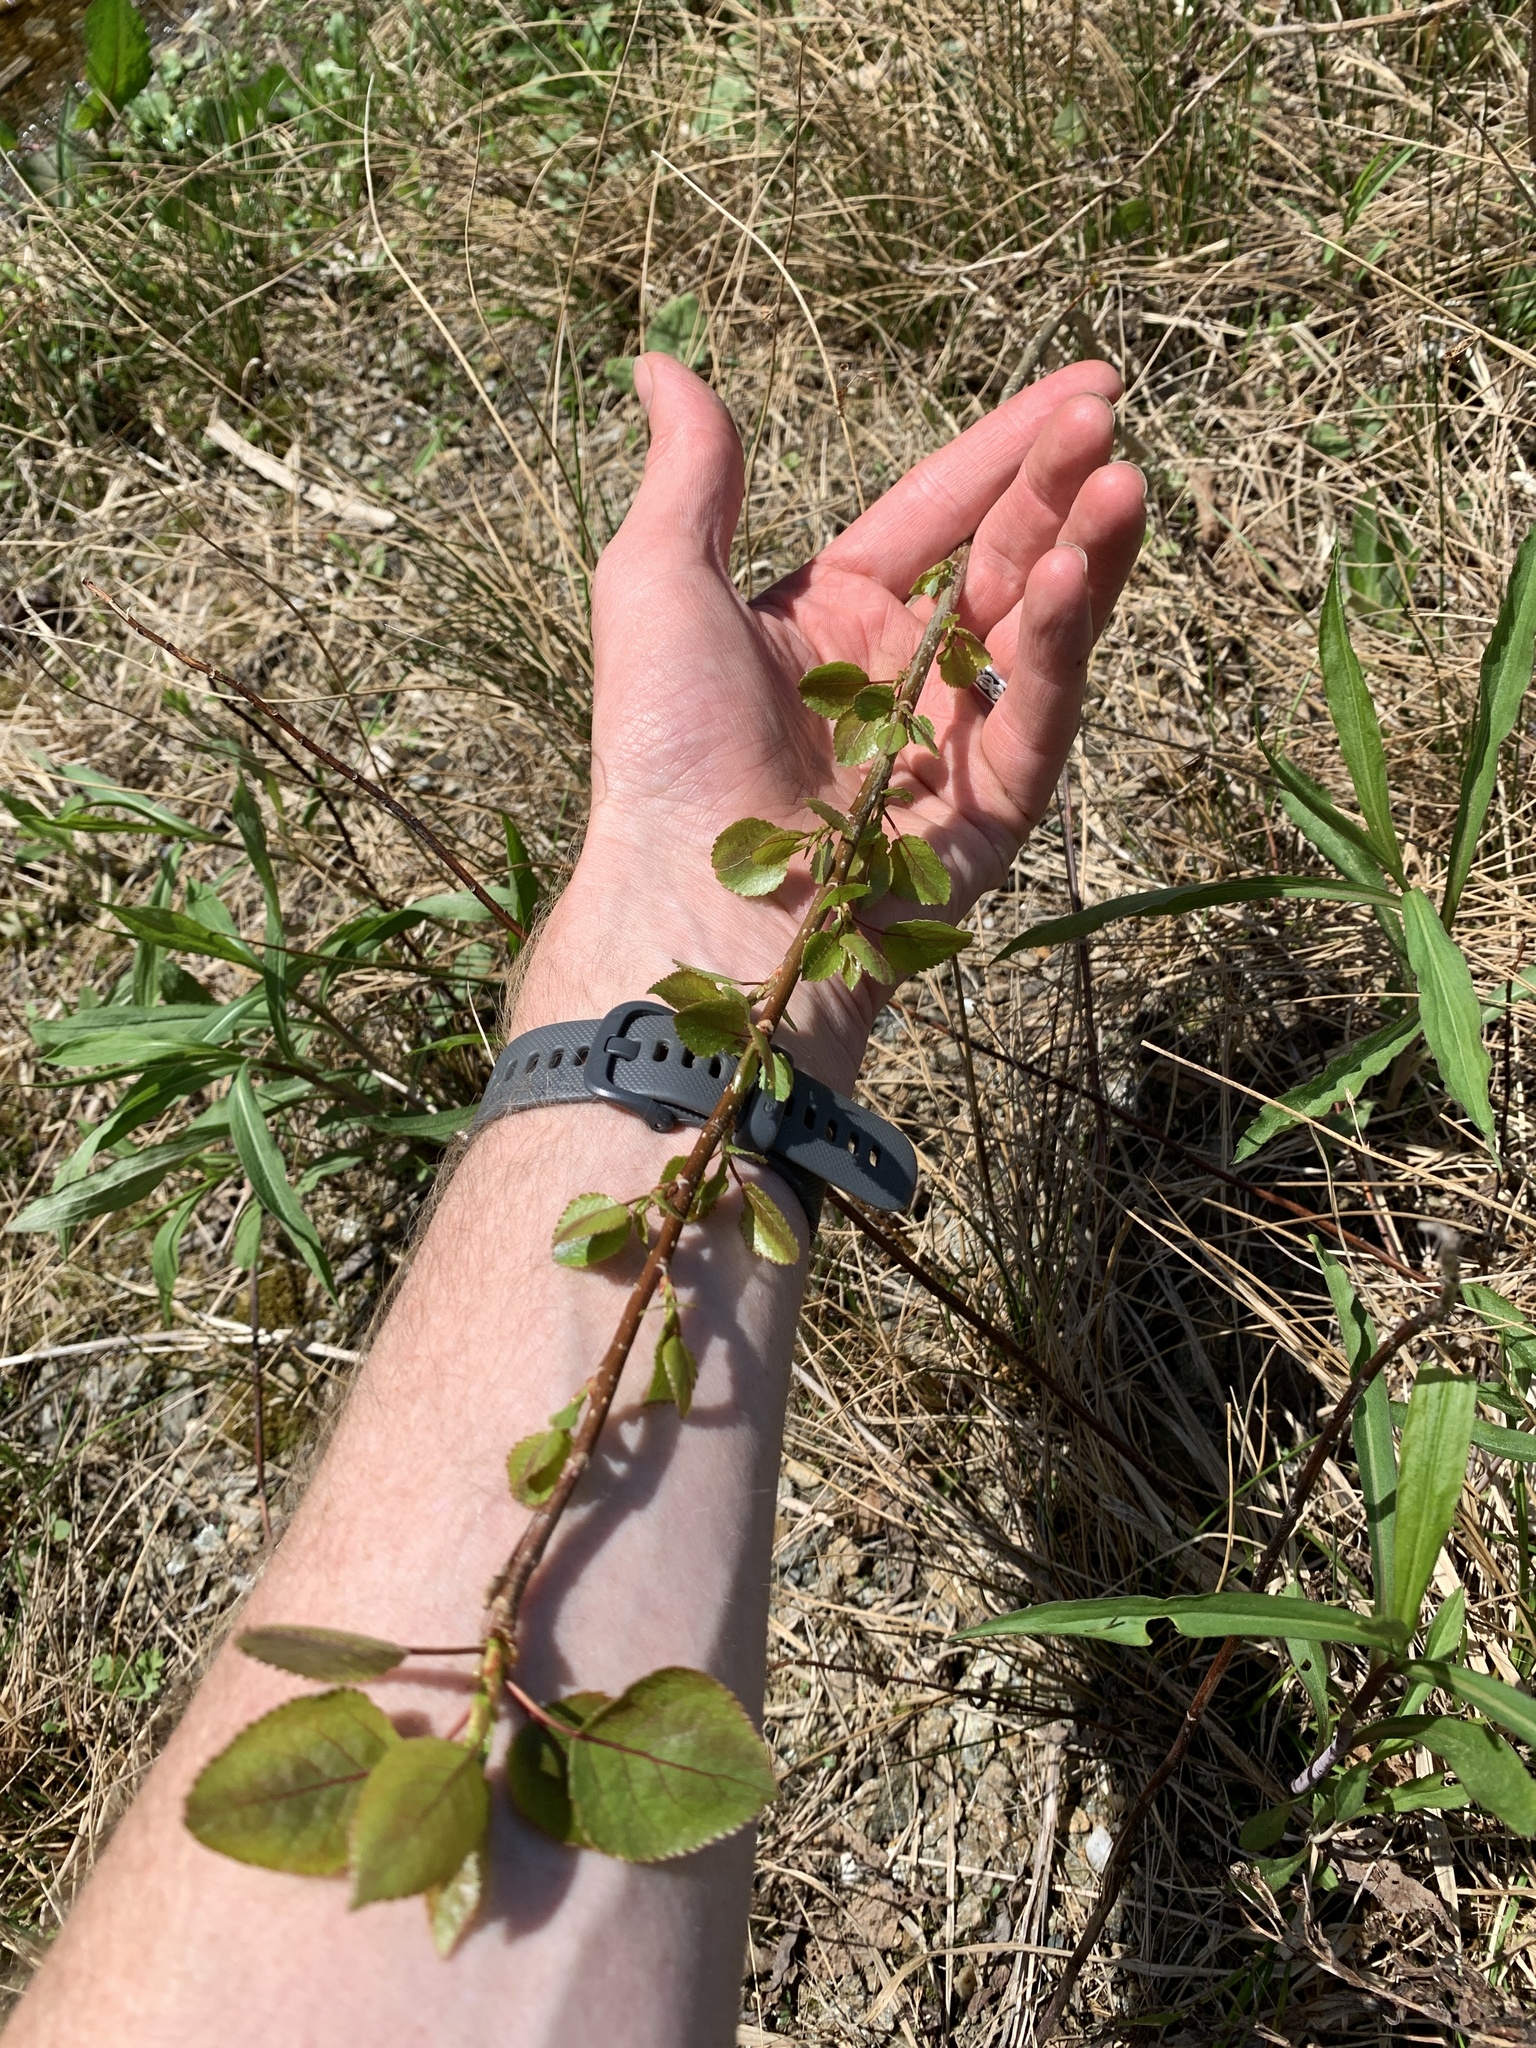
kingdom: Plantae
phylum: Tracheophyta
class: Magnoliopsida
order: Malpighiales
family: Salicaceae
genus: Populus
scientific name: Populus tremuloides
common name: Quaking aspen
